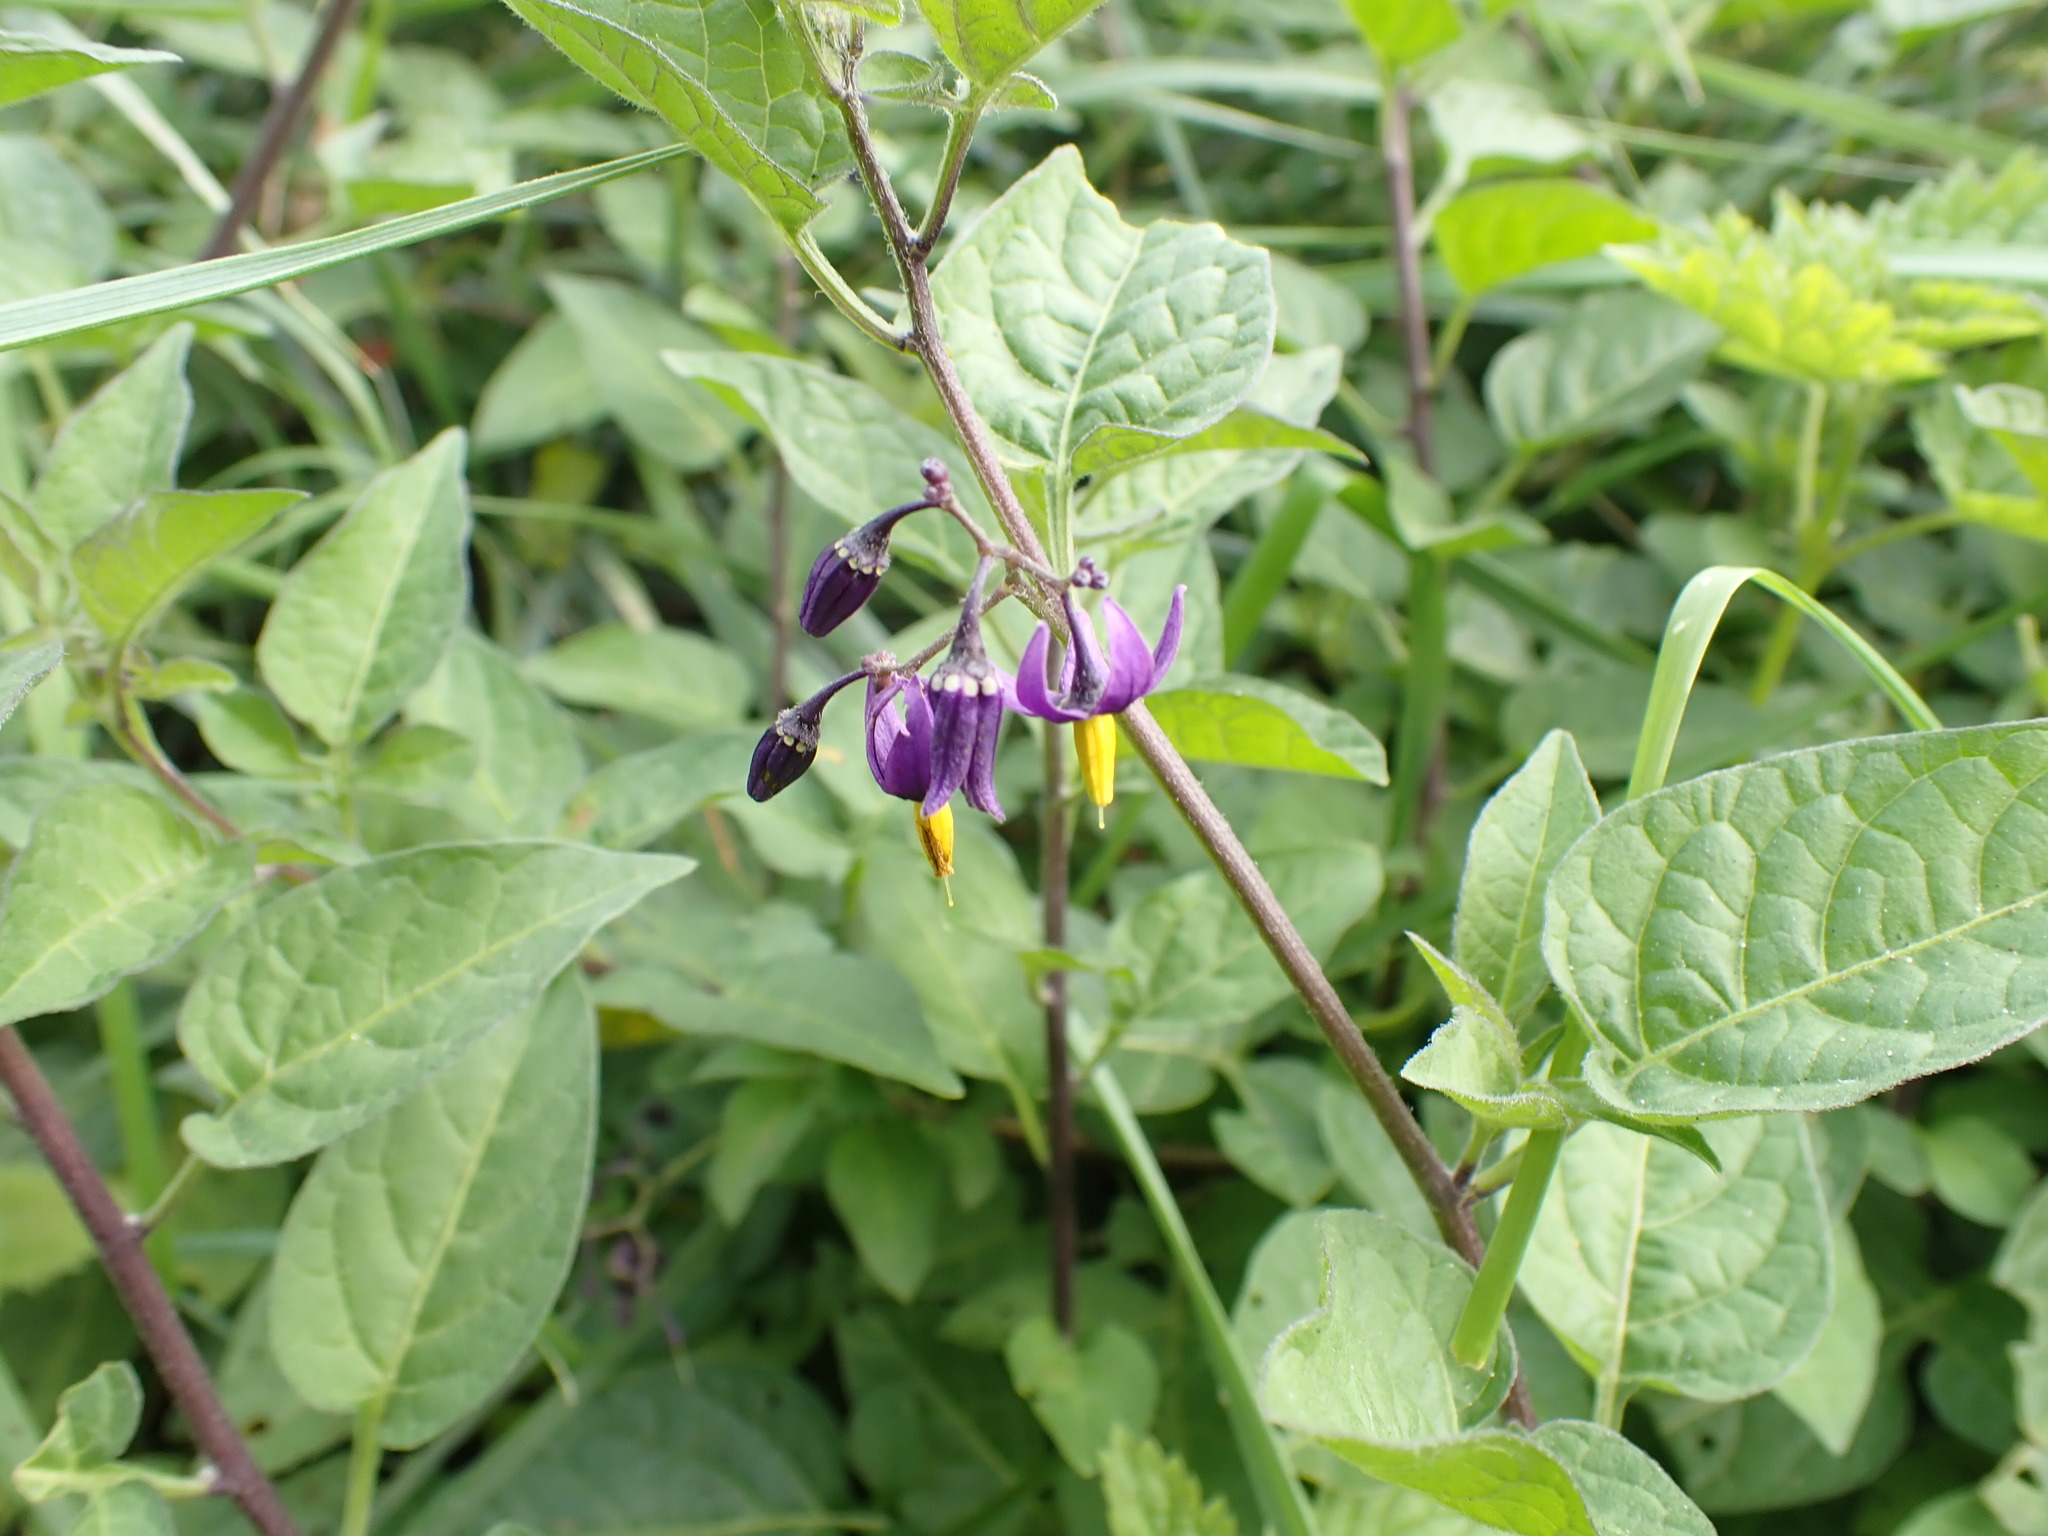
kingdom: Plantae
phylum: Tracheophyta
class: Magnoliopsida
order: Solanales
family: Solanaceae
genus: Solanum
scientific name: Solanum dulcamara
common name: Climbing nightshade
